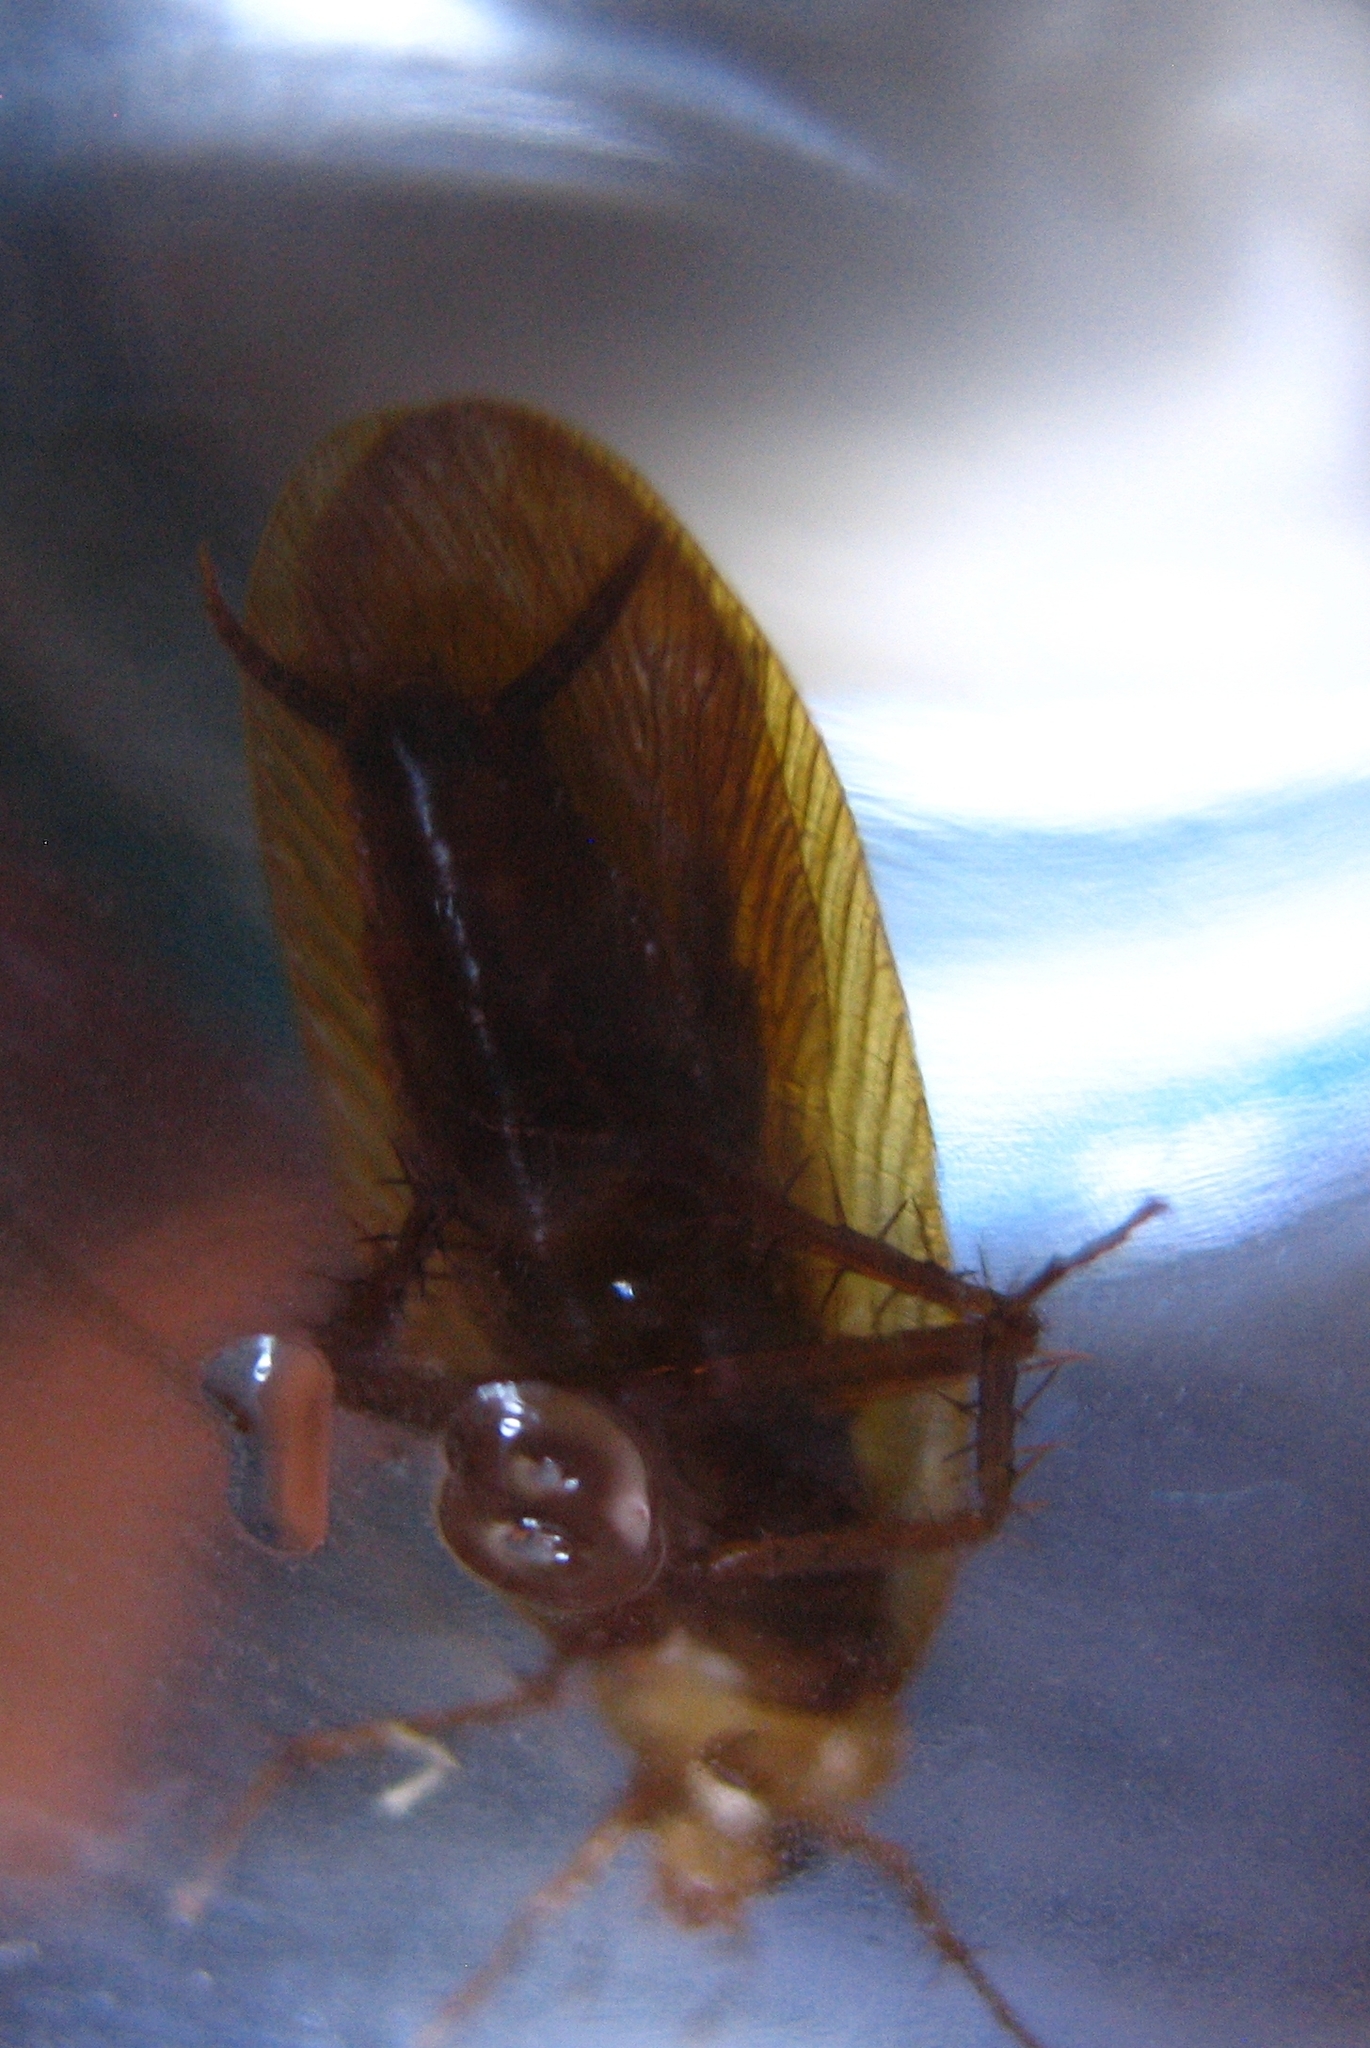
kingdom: Animalia
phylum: Arthropoda
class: Insecta
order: Blattodea
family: Ectobiidae
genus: Parcoblatta
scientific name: Parcoblatta virginica
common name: Virginia wood cockroach
